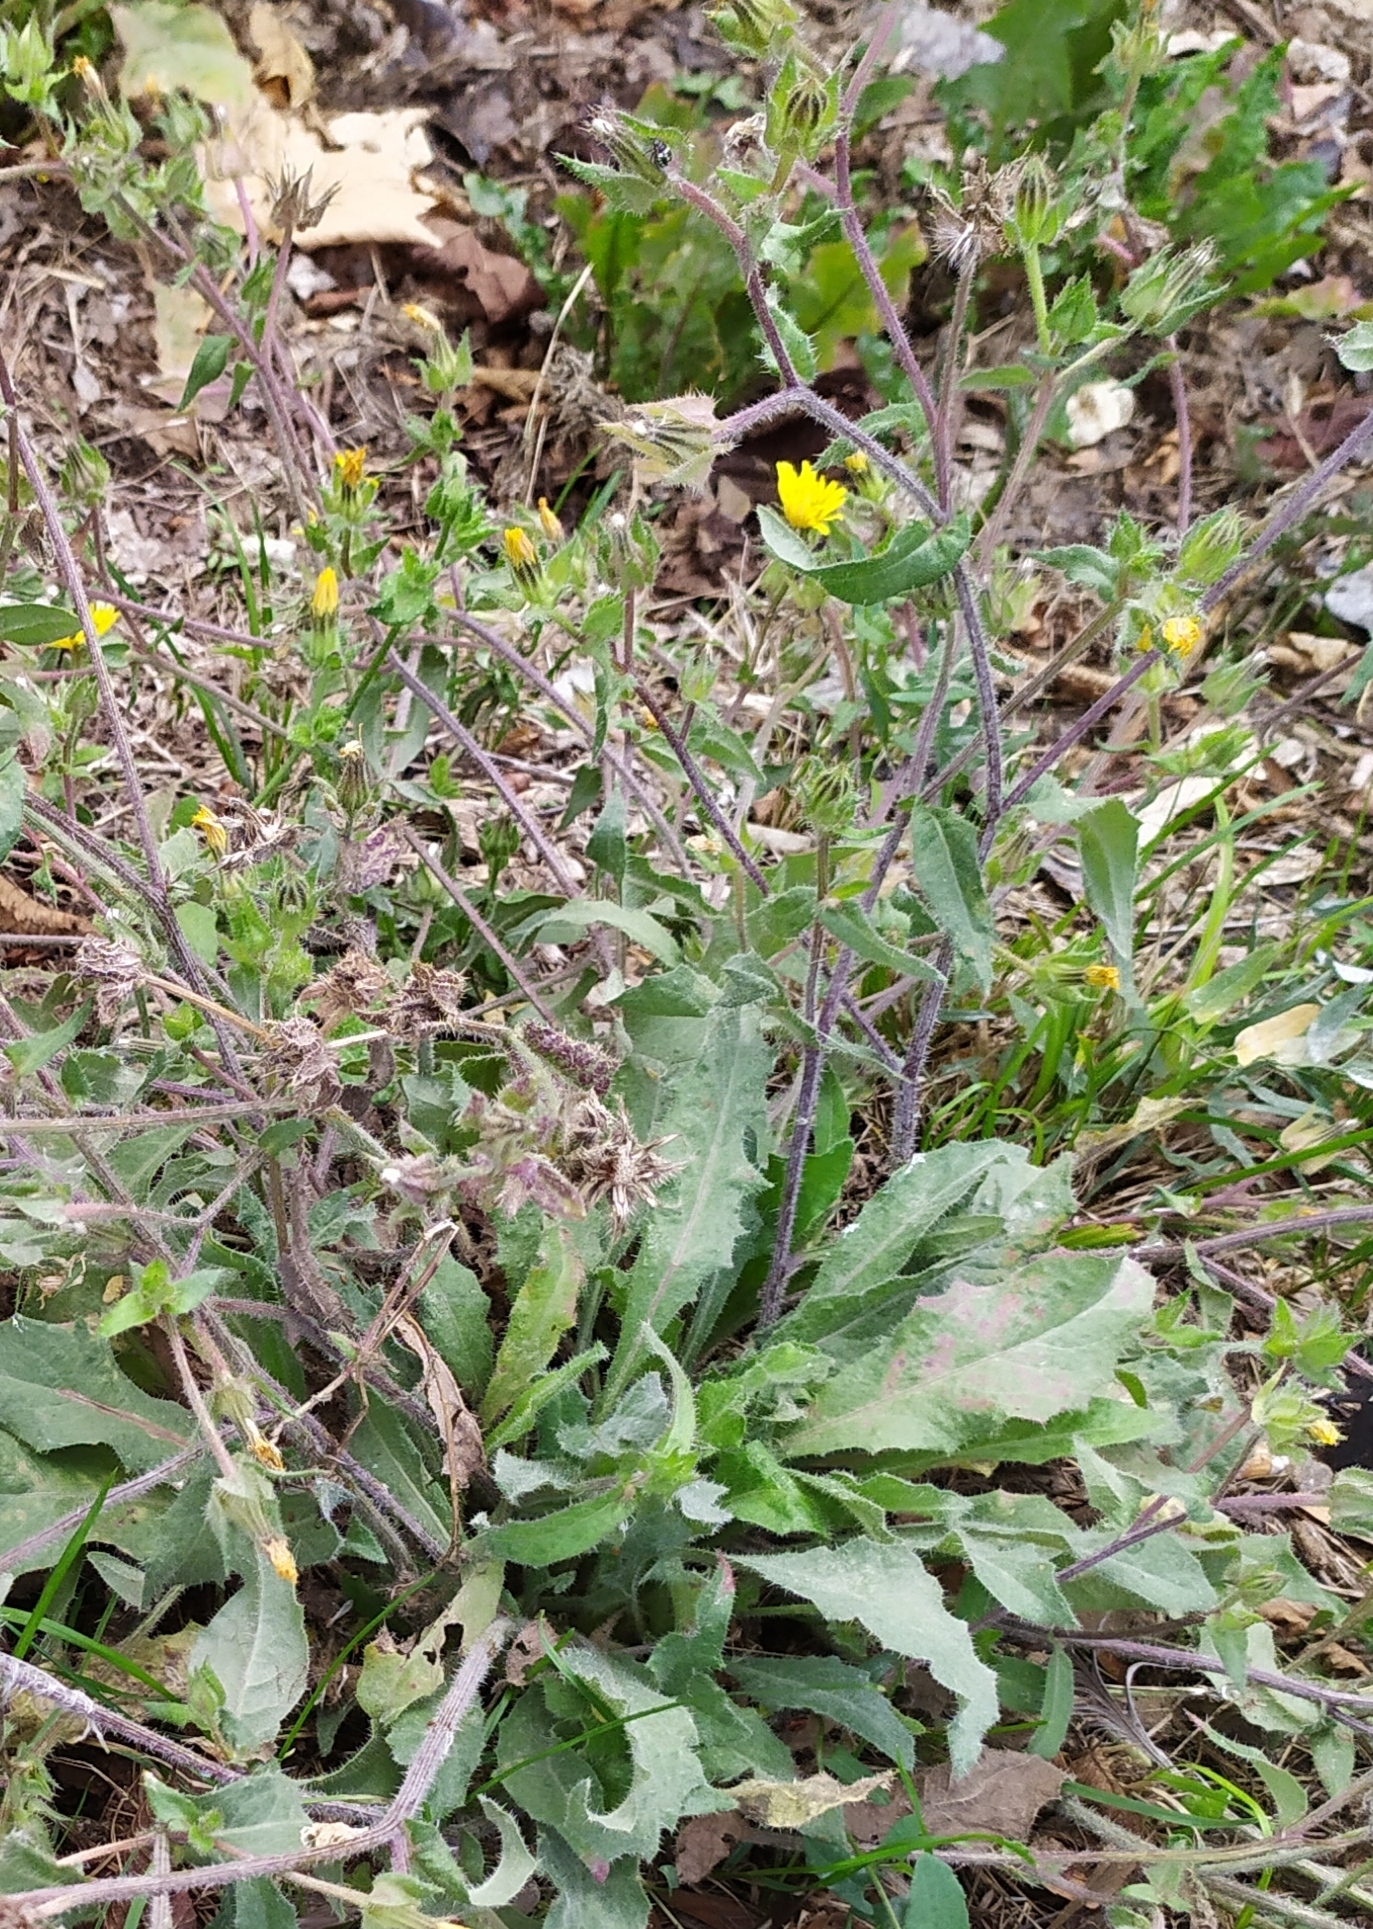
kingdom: Plantae
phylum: Tracheophyta
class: Magnoliopsida
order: Asterales
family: Asteraceae
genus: Helminthotheca
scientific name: Helminthotheca echioides
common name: Ox-tongue
